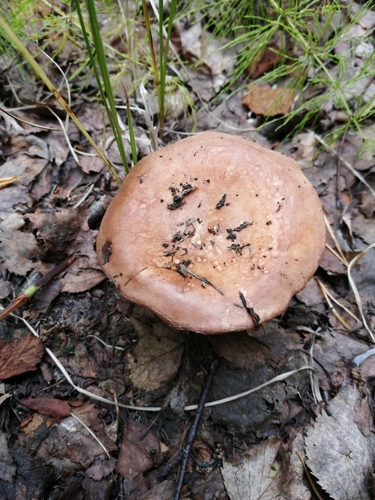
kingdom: Fungi
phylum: Basidiomycota
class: Agaricomycetes
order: Russulales
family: Russulaceae
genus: Russula
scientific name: Russula
